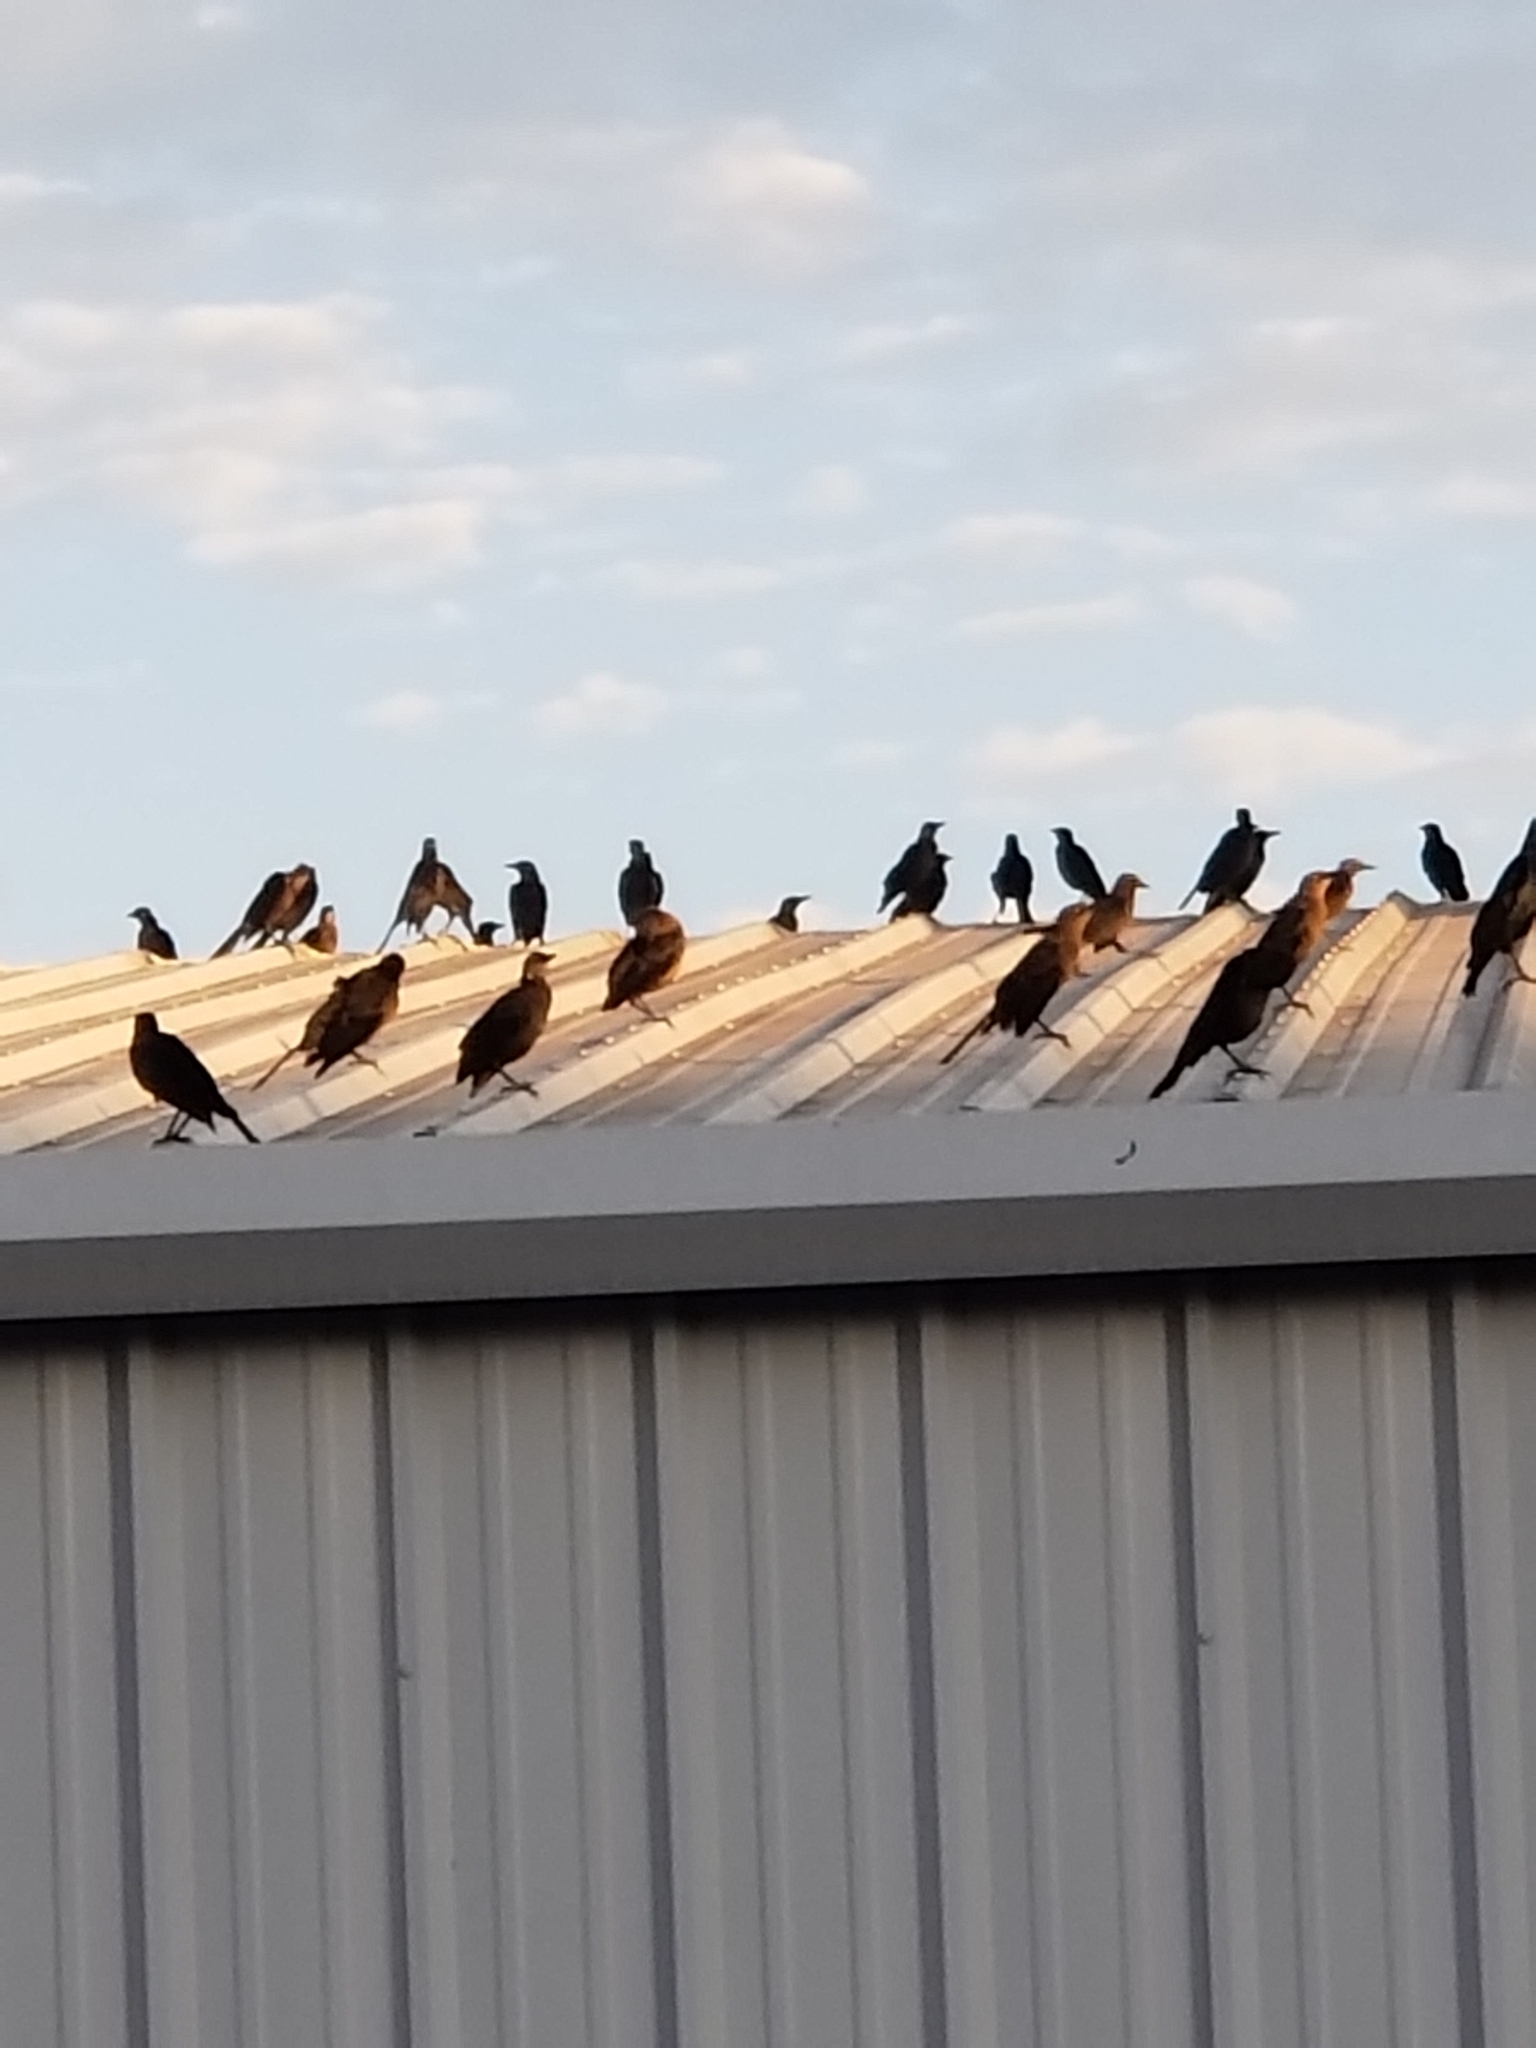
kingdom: Animalia
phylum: Chordata
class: Aves
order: Passeriformes
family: Icteridae
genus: Quiscalus
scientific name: Quiscalus mexicanus
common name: Great-tailed grackle
